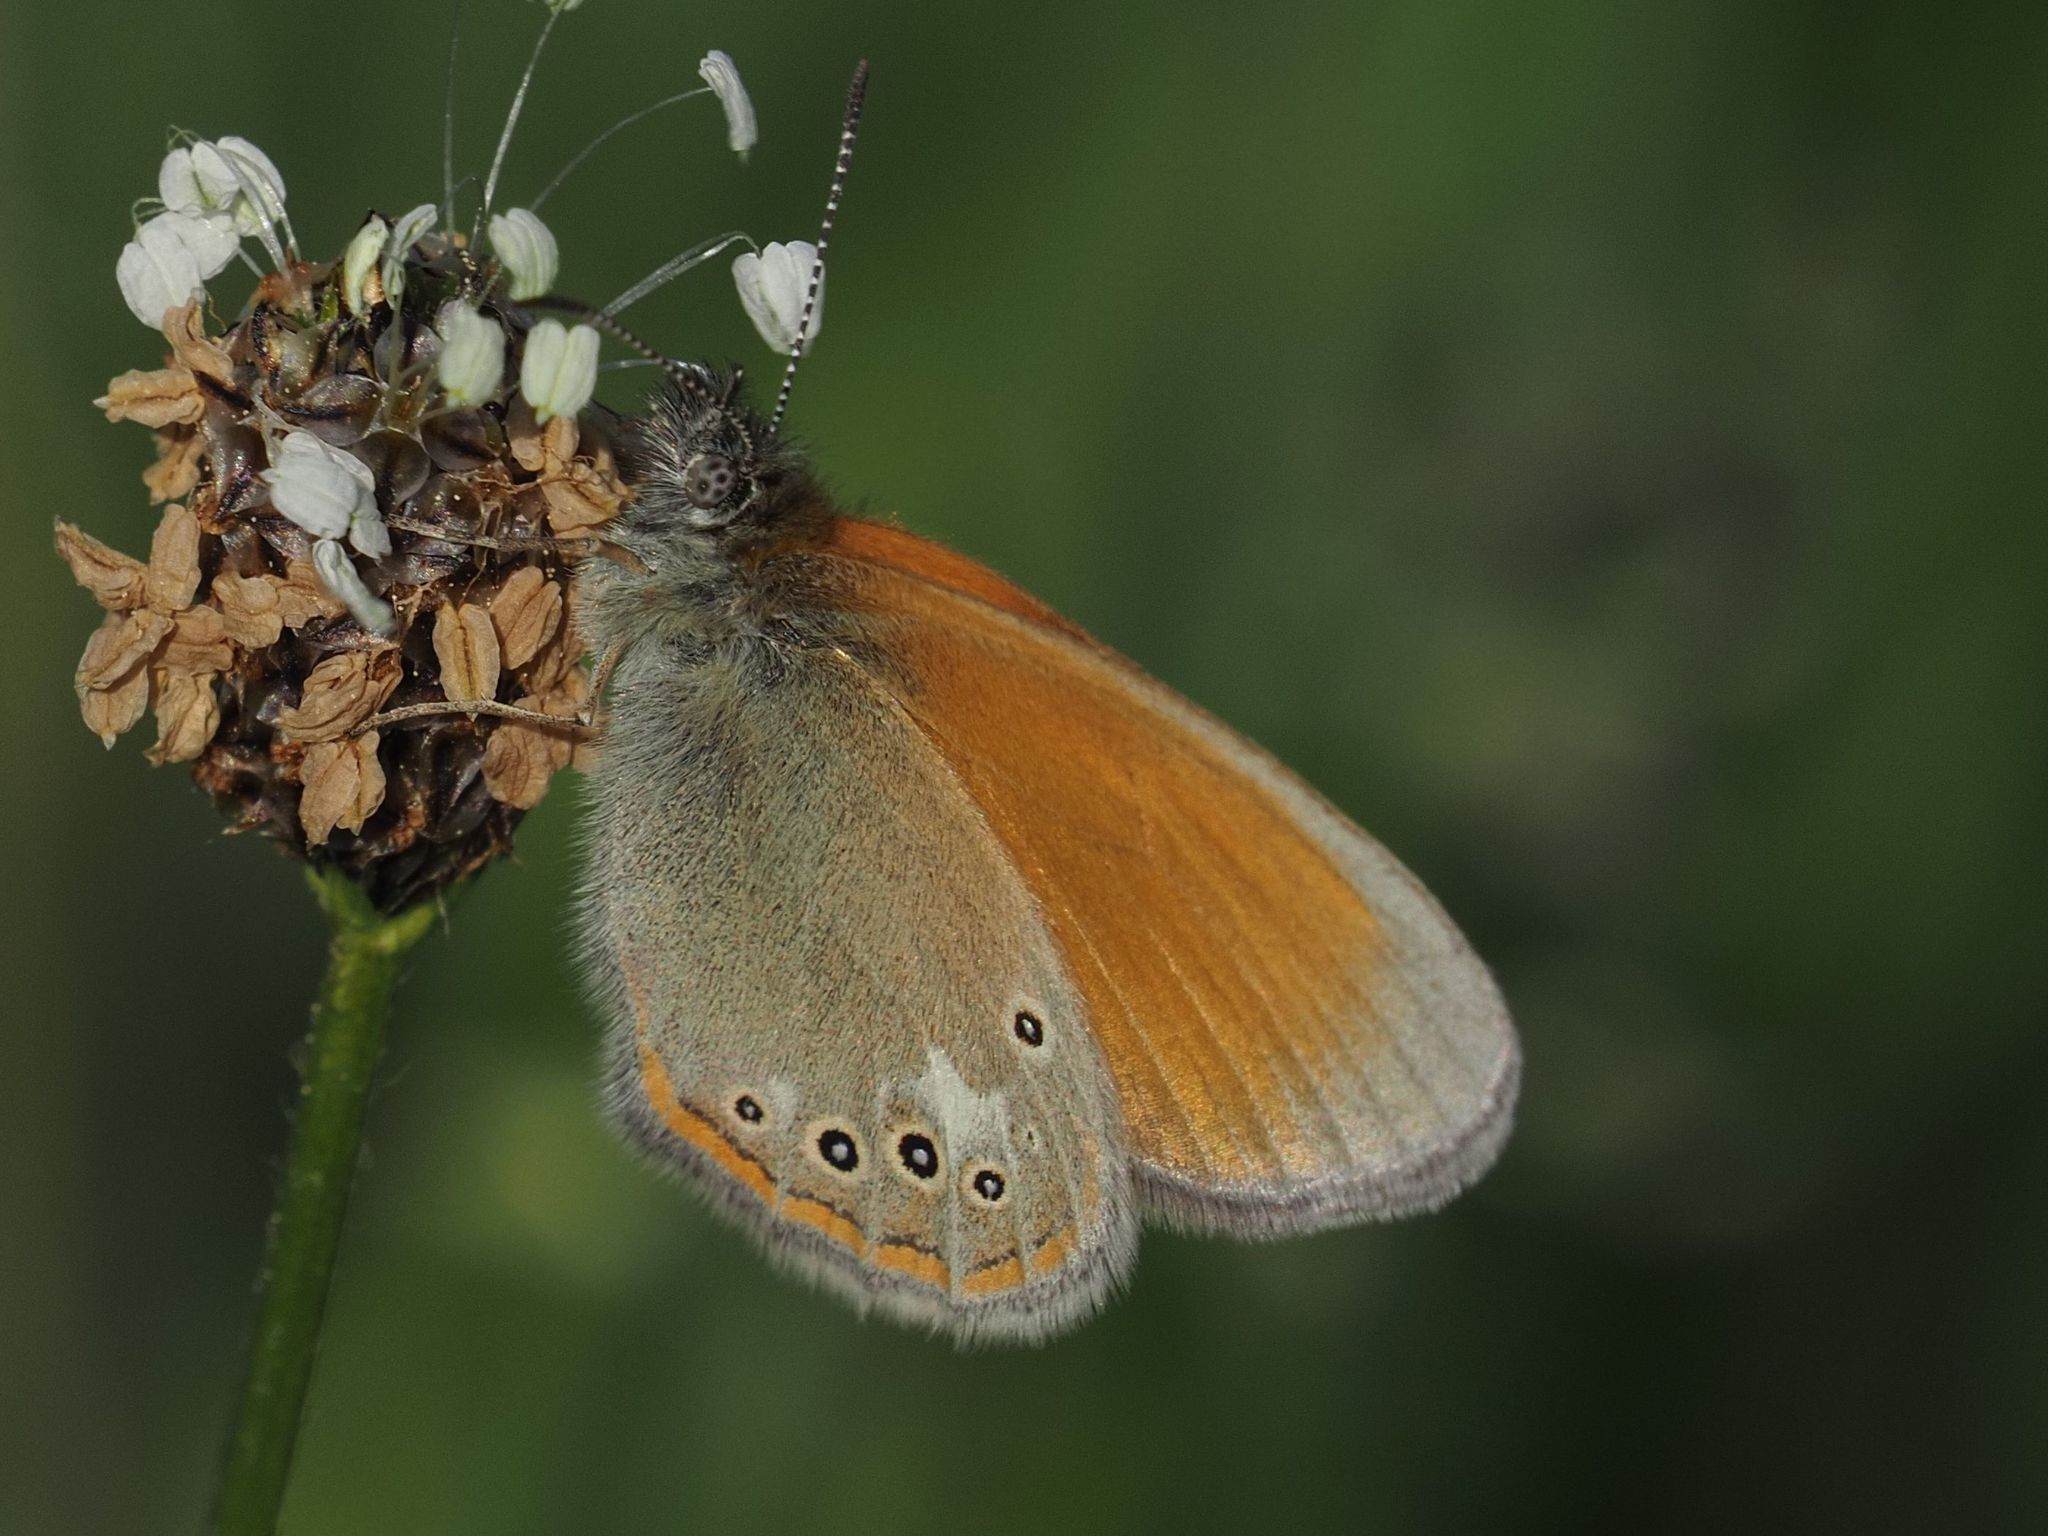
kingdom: Animalia
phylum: Arthropoda
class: Insecta
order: Lepidoptera
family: Nymphalidae
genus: Coenonympha
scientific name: Coenonympha iphis
